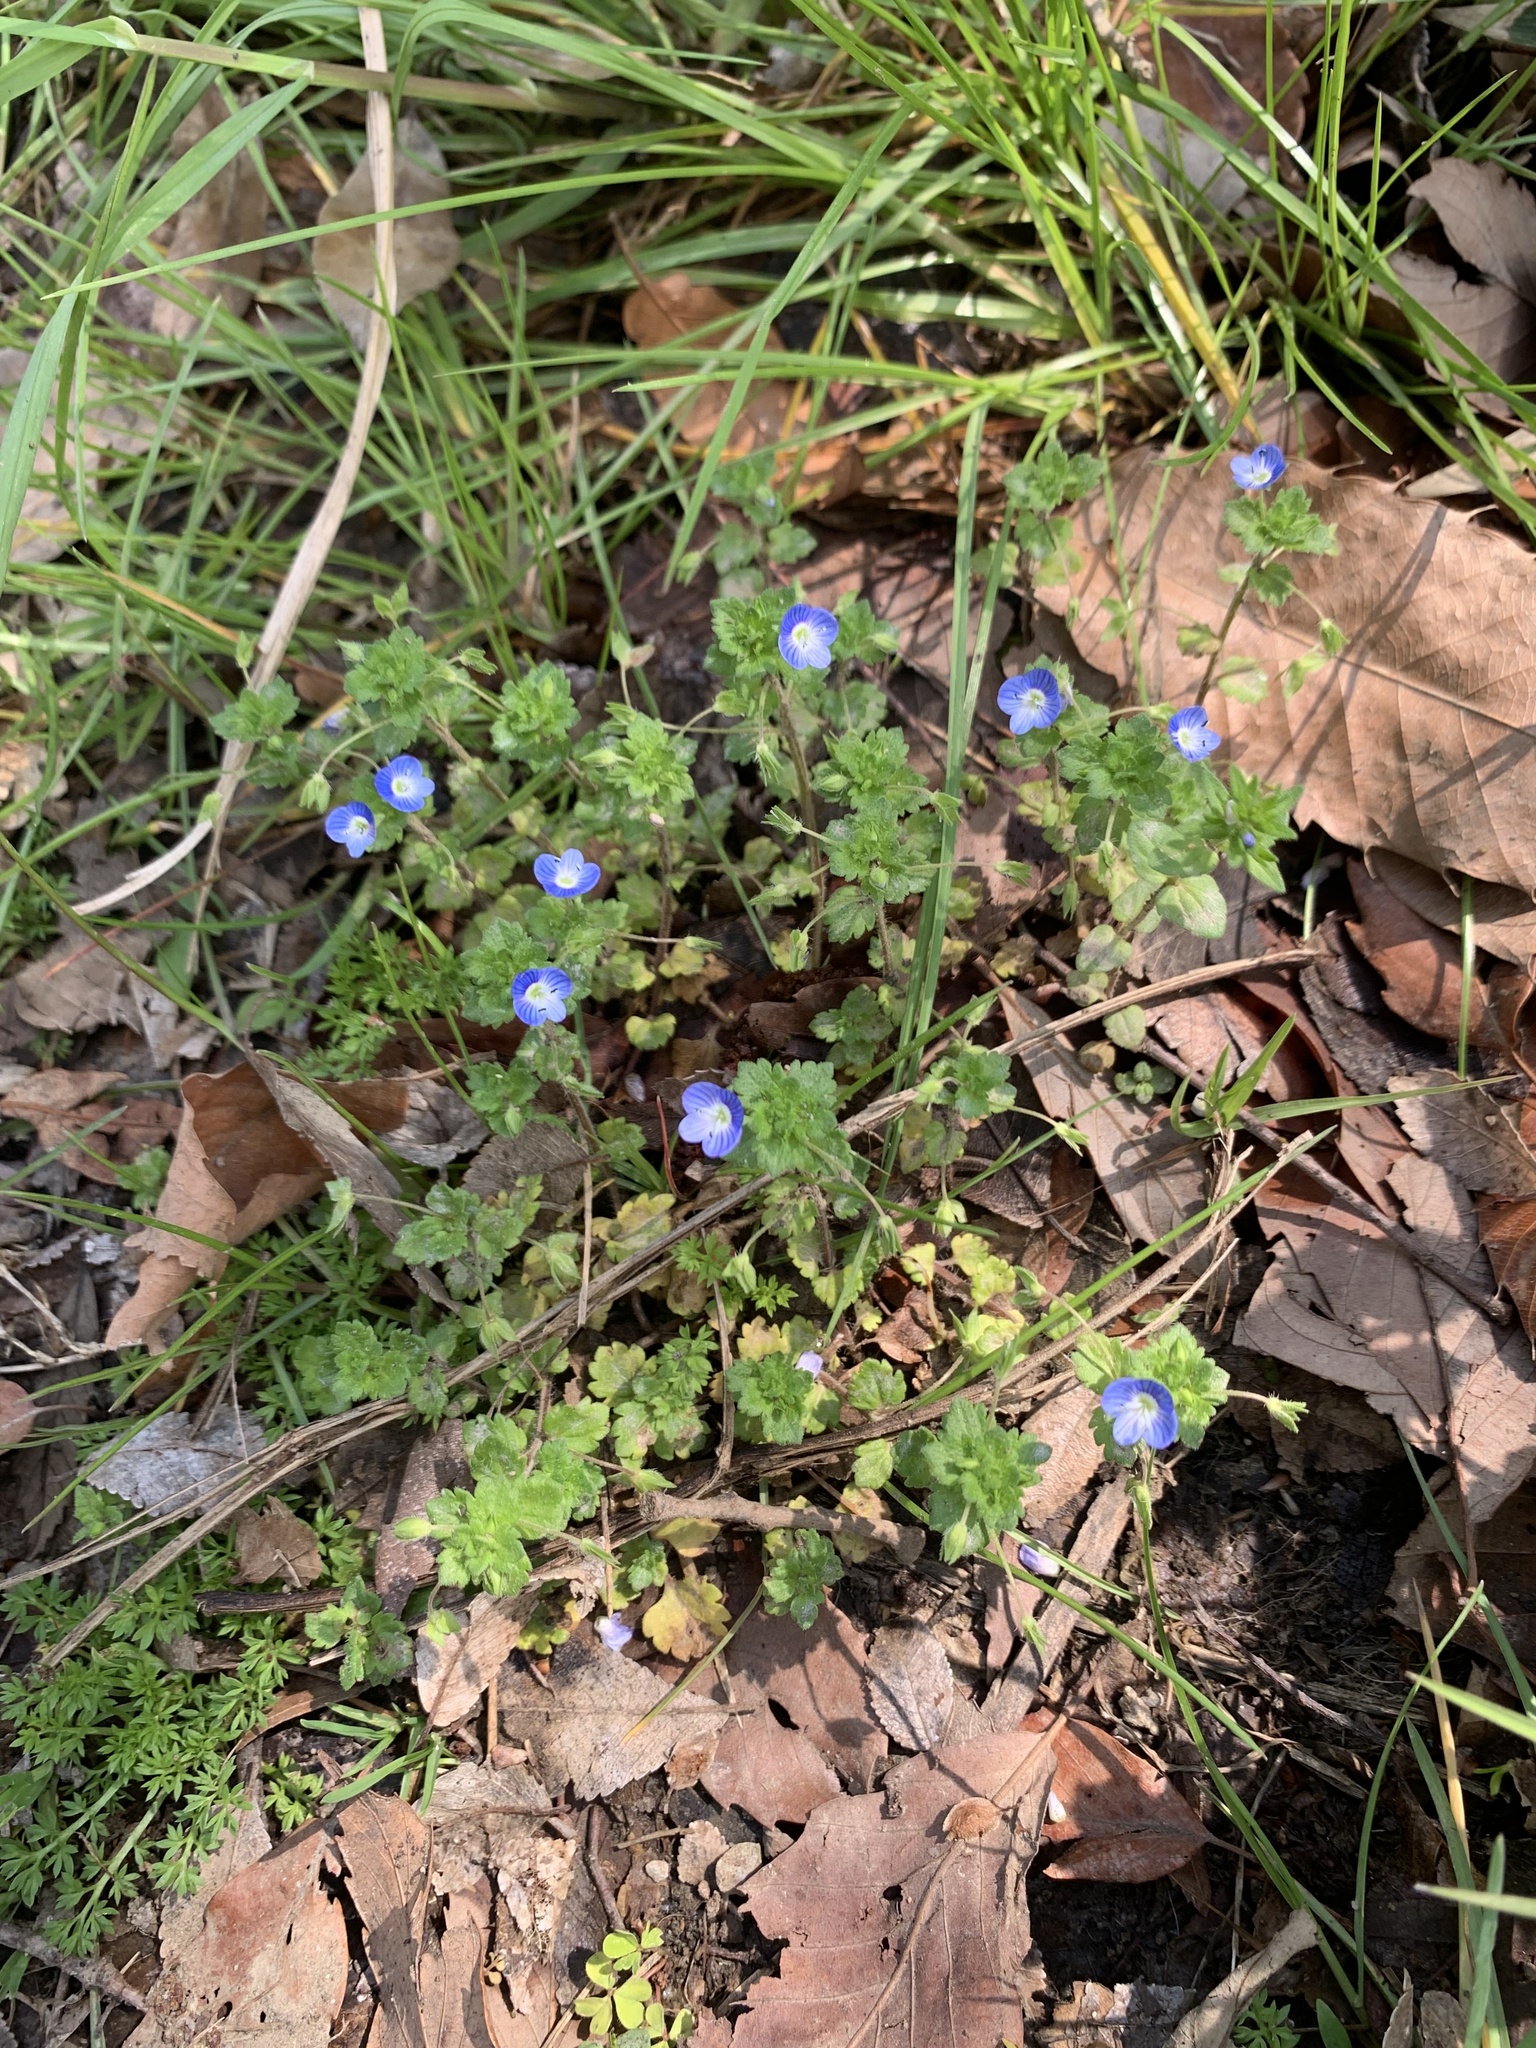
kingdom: Plantae
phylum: Tracheophyta
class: Magnoliopsida
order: Lamiales
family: Plantaginaceae
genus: Veronica
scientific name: Veronica persica
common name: Common field-speedwell
